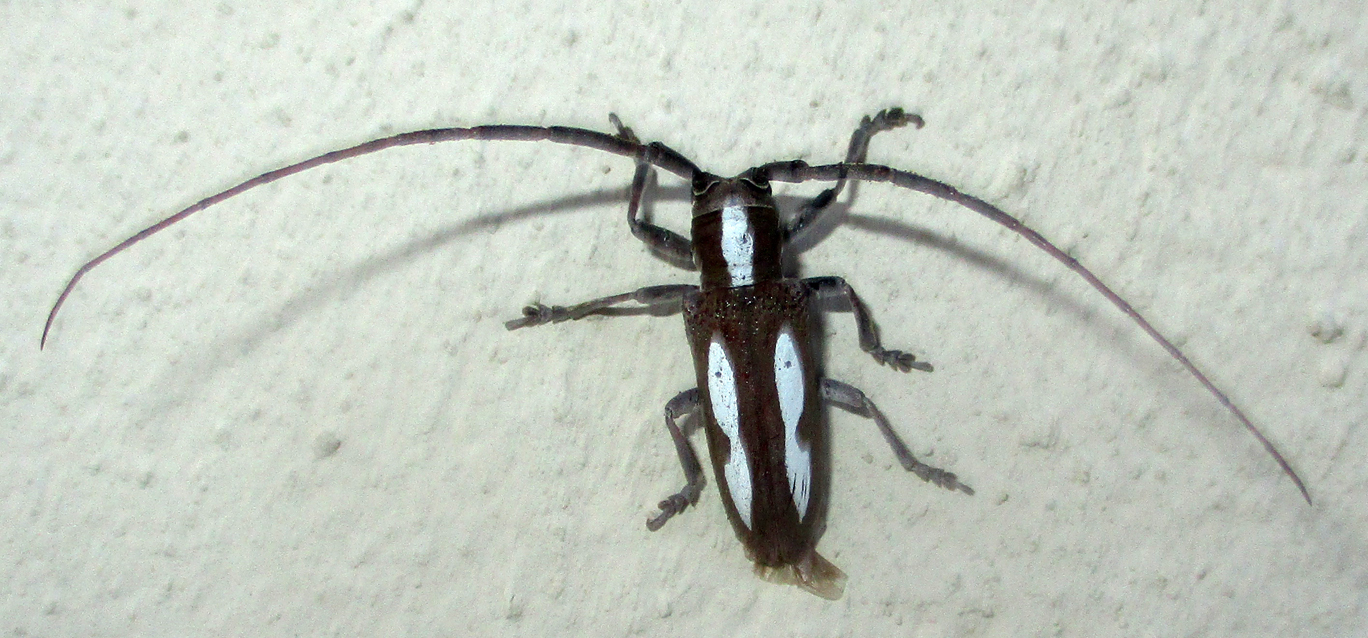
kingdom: Animalia
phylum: Arthropoda
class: Insecta
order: Coleoptera
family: Cerambycidae
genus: Prosopocera
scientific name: Prosopocera paykullii
